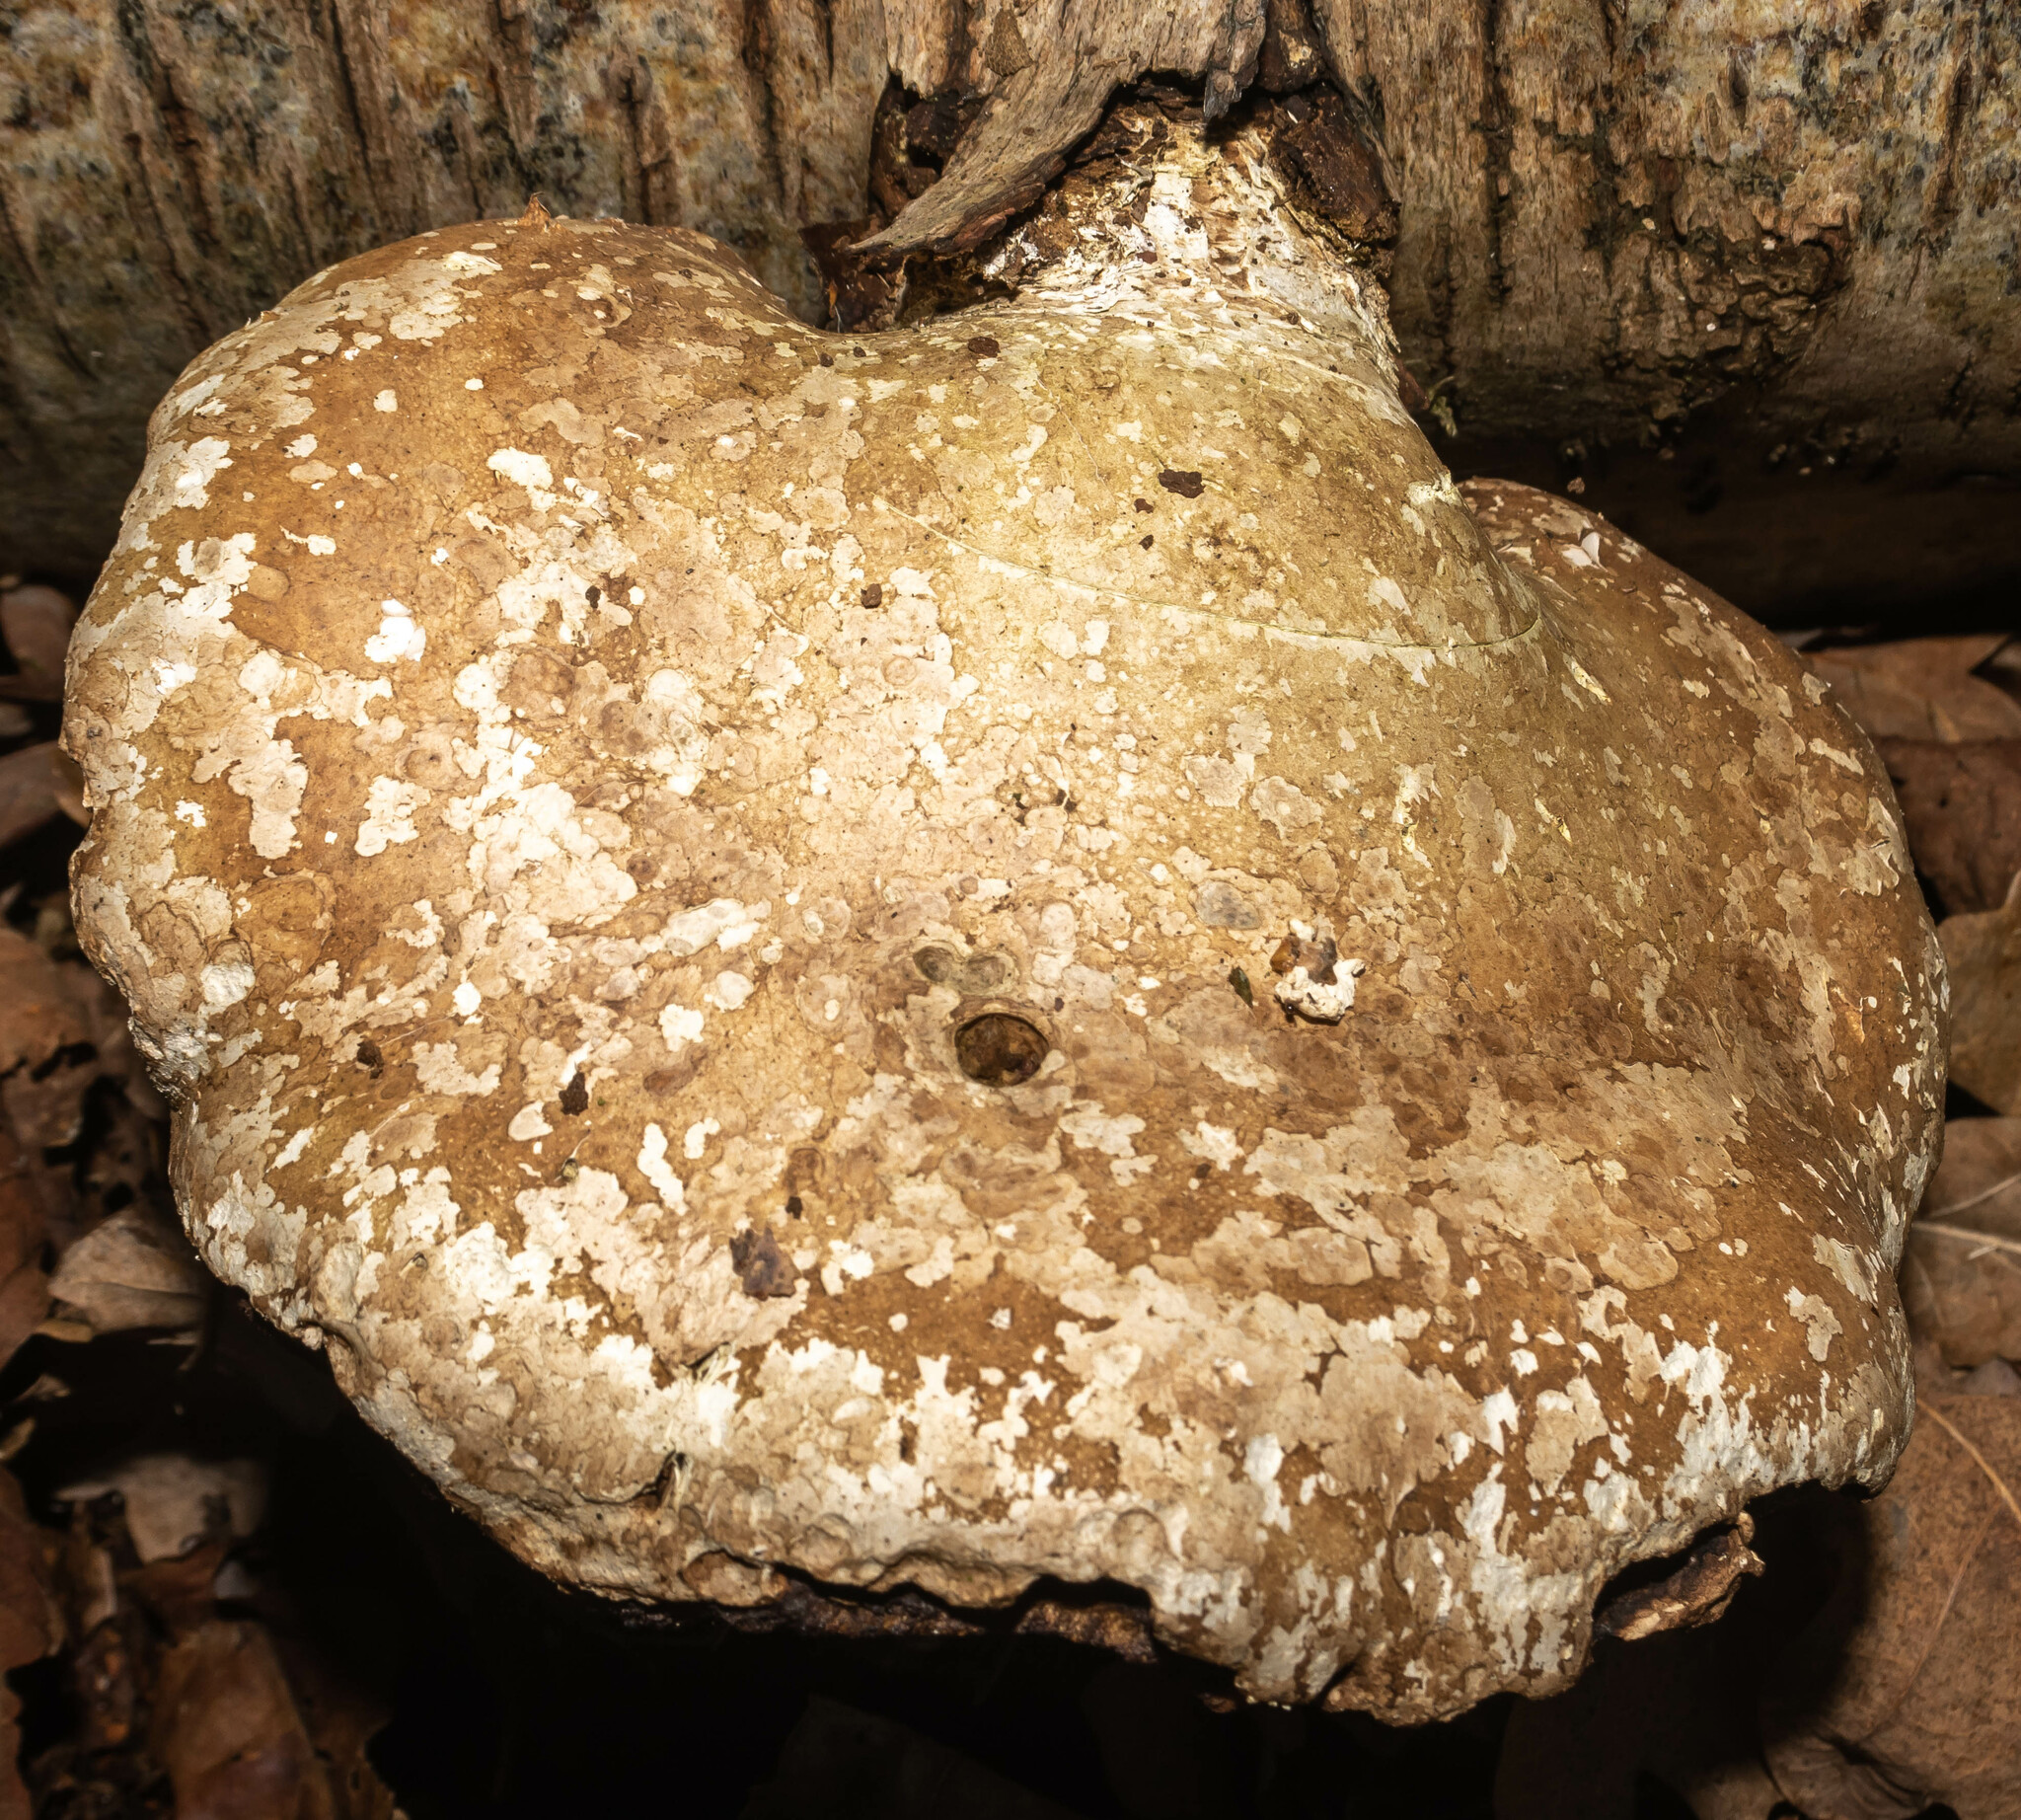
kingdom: Fungi
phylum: Basidiomycota
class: Agaricomycetes
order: Polyporales
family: Fomitopsidaceae
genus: Fomitopsis
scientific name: Fomitopsis betulina
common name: Birch polypore
